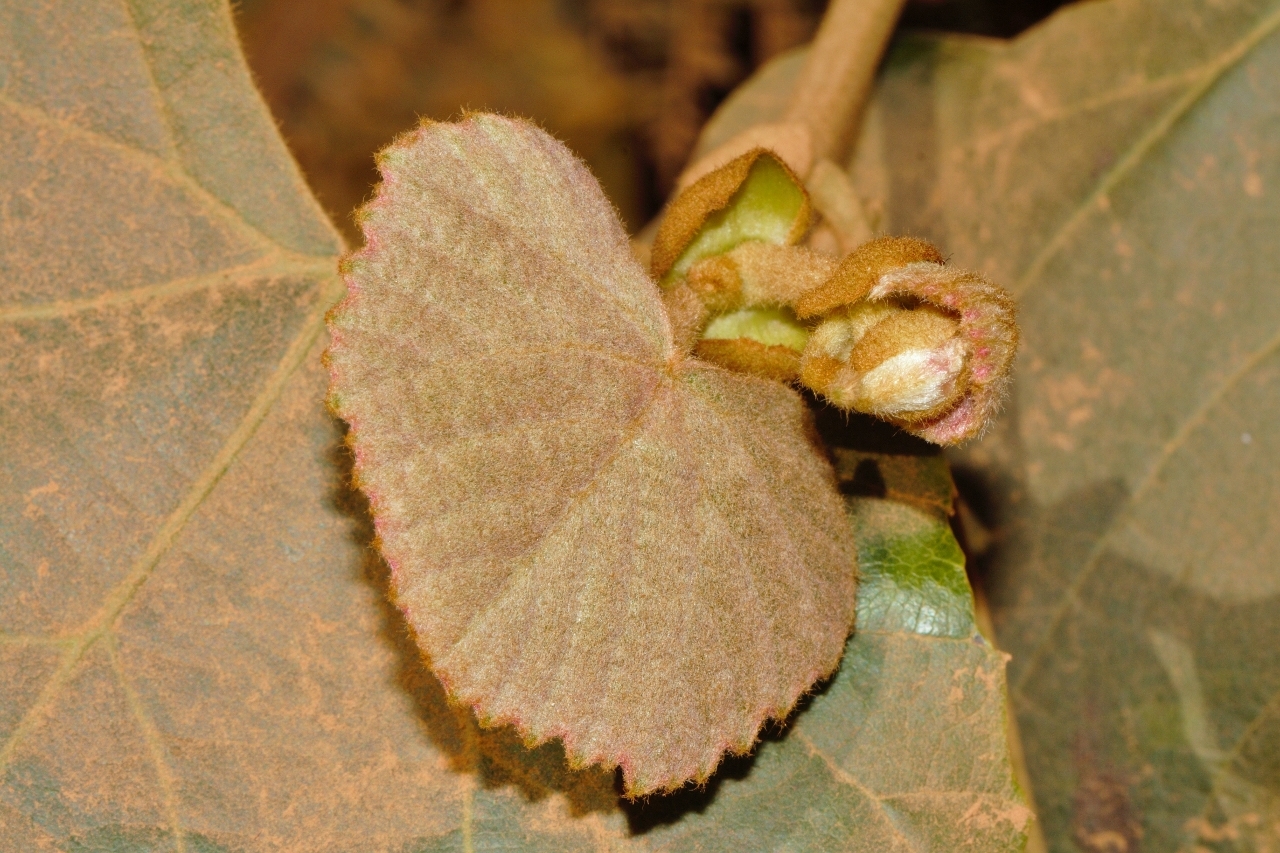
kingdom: Plantae
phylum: Tracheophyta
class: Magnoliopsida
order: Vitales
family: Vitaceae
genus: Rhoicissus
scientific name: Rhoicissus tomentosa
